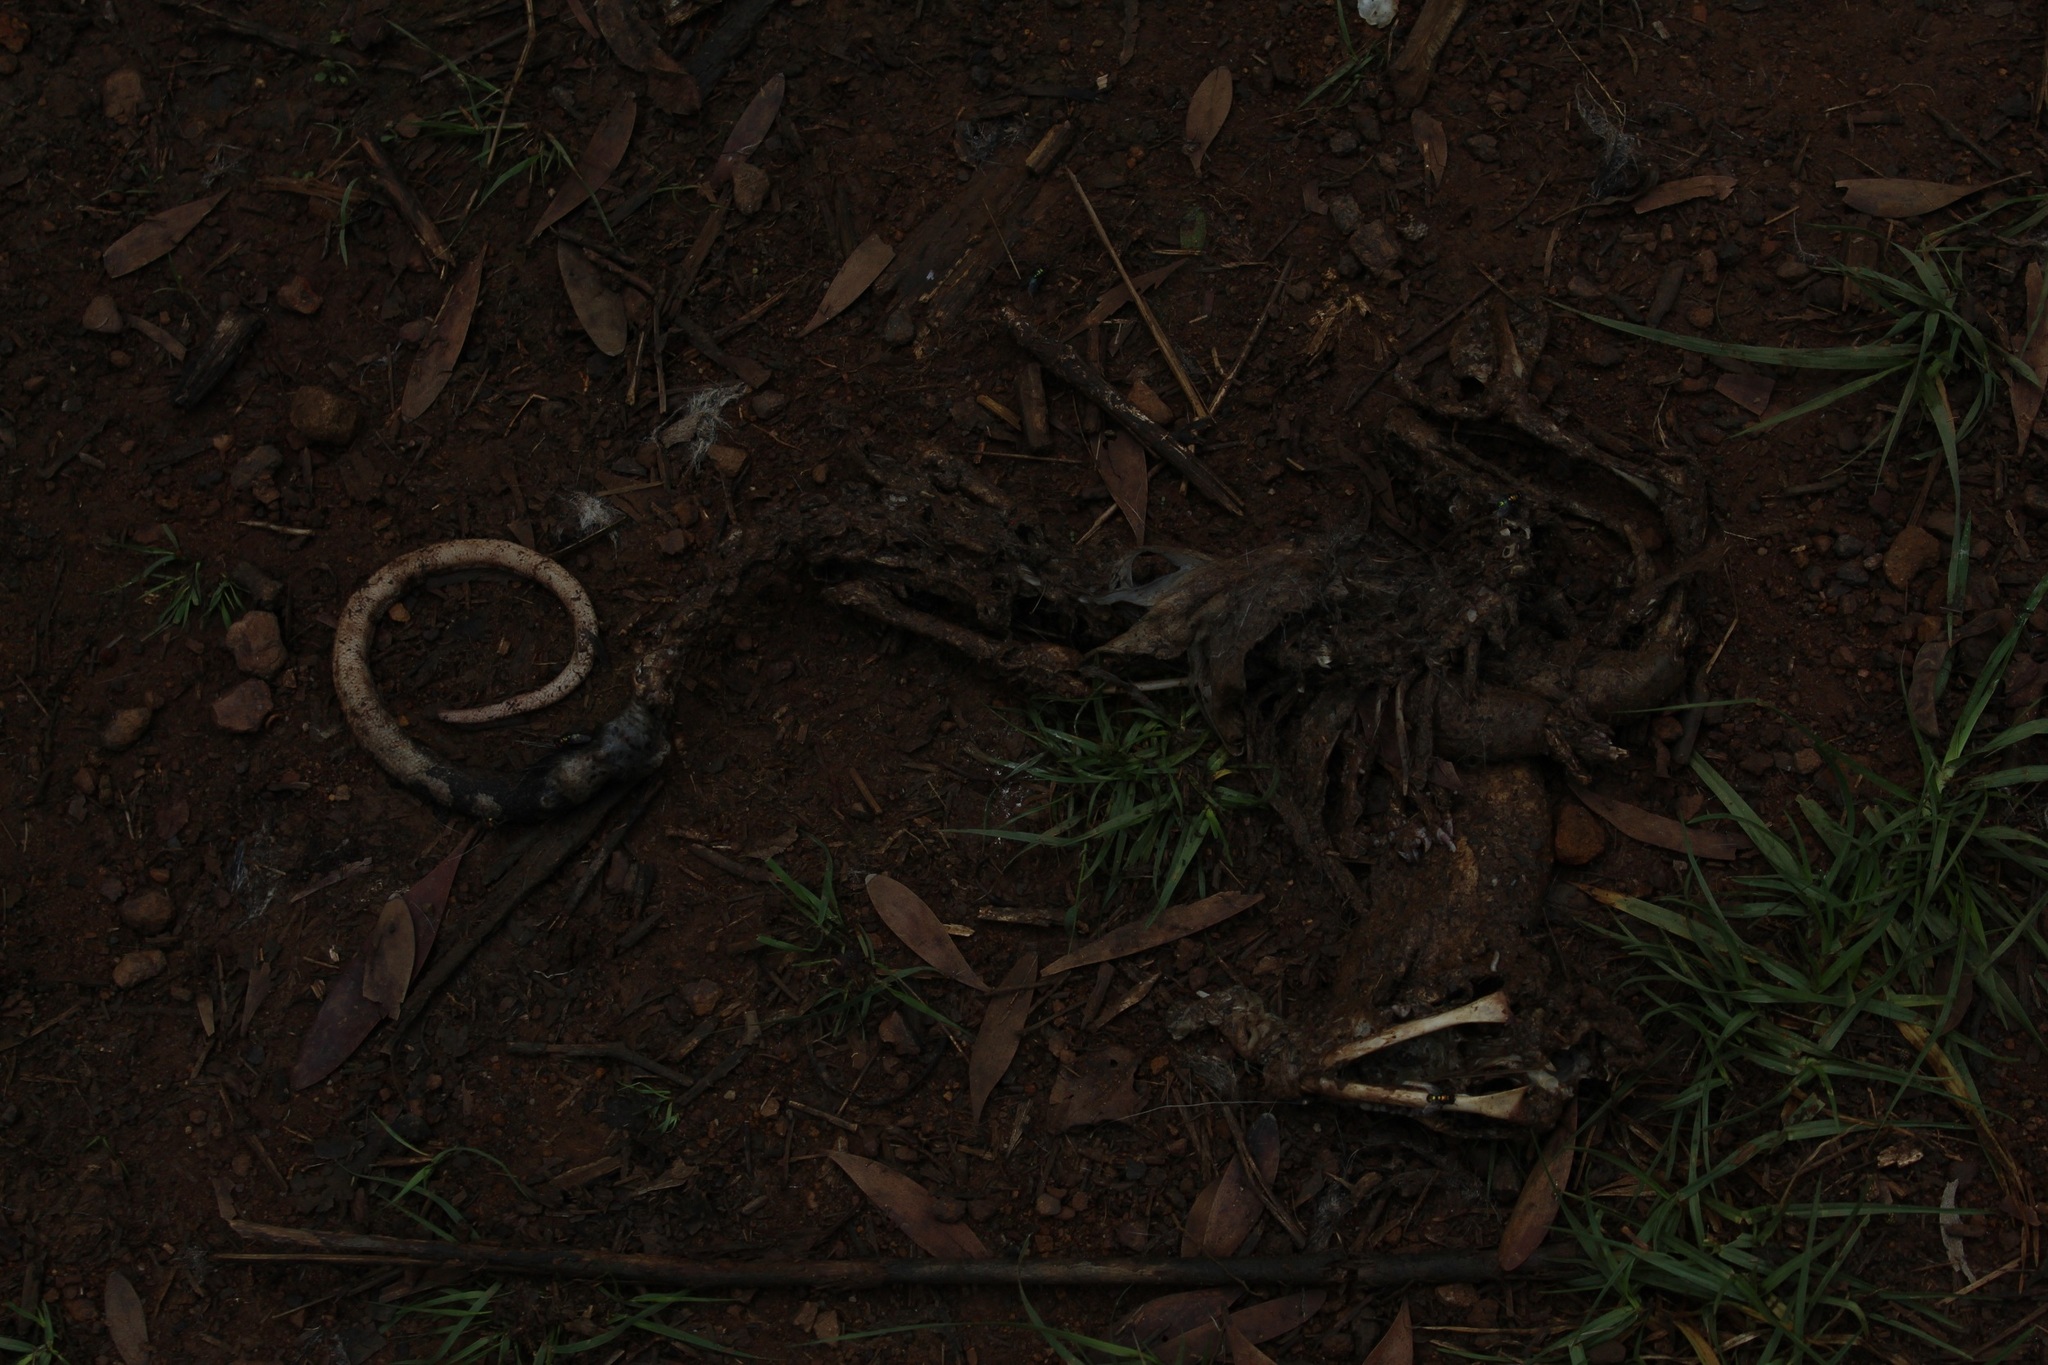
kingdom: Animalia
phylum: Chordata
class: Mammalia
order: Didelphimorphia
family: Didelphidae
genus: Didelphis
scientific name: Didelphis marsupialis
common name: Common opossum
